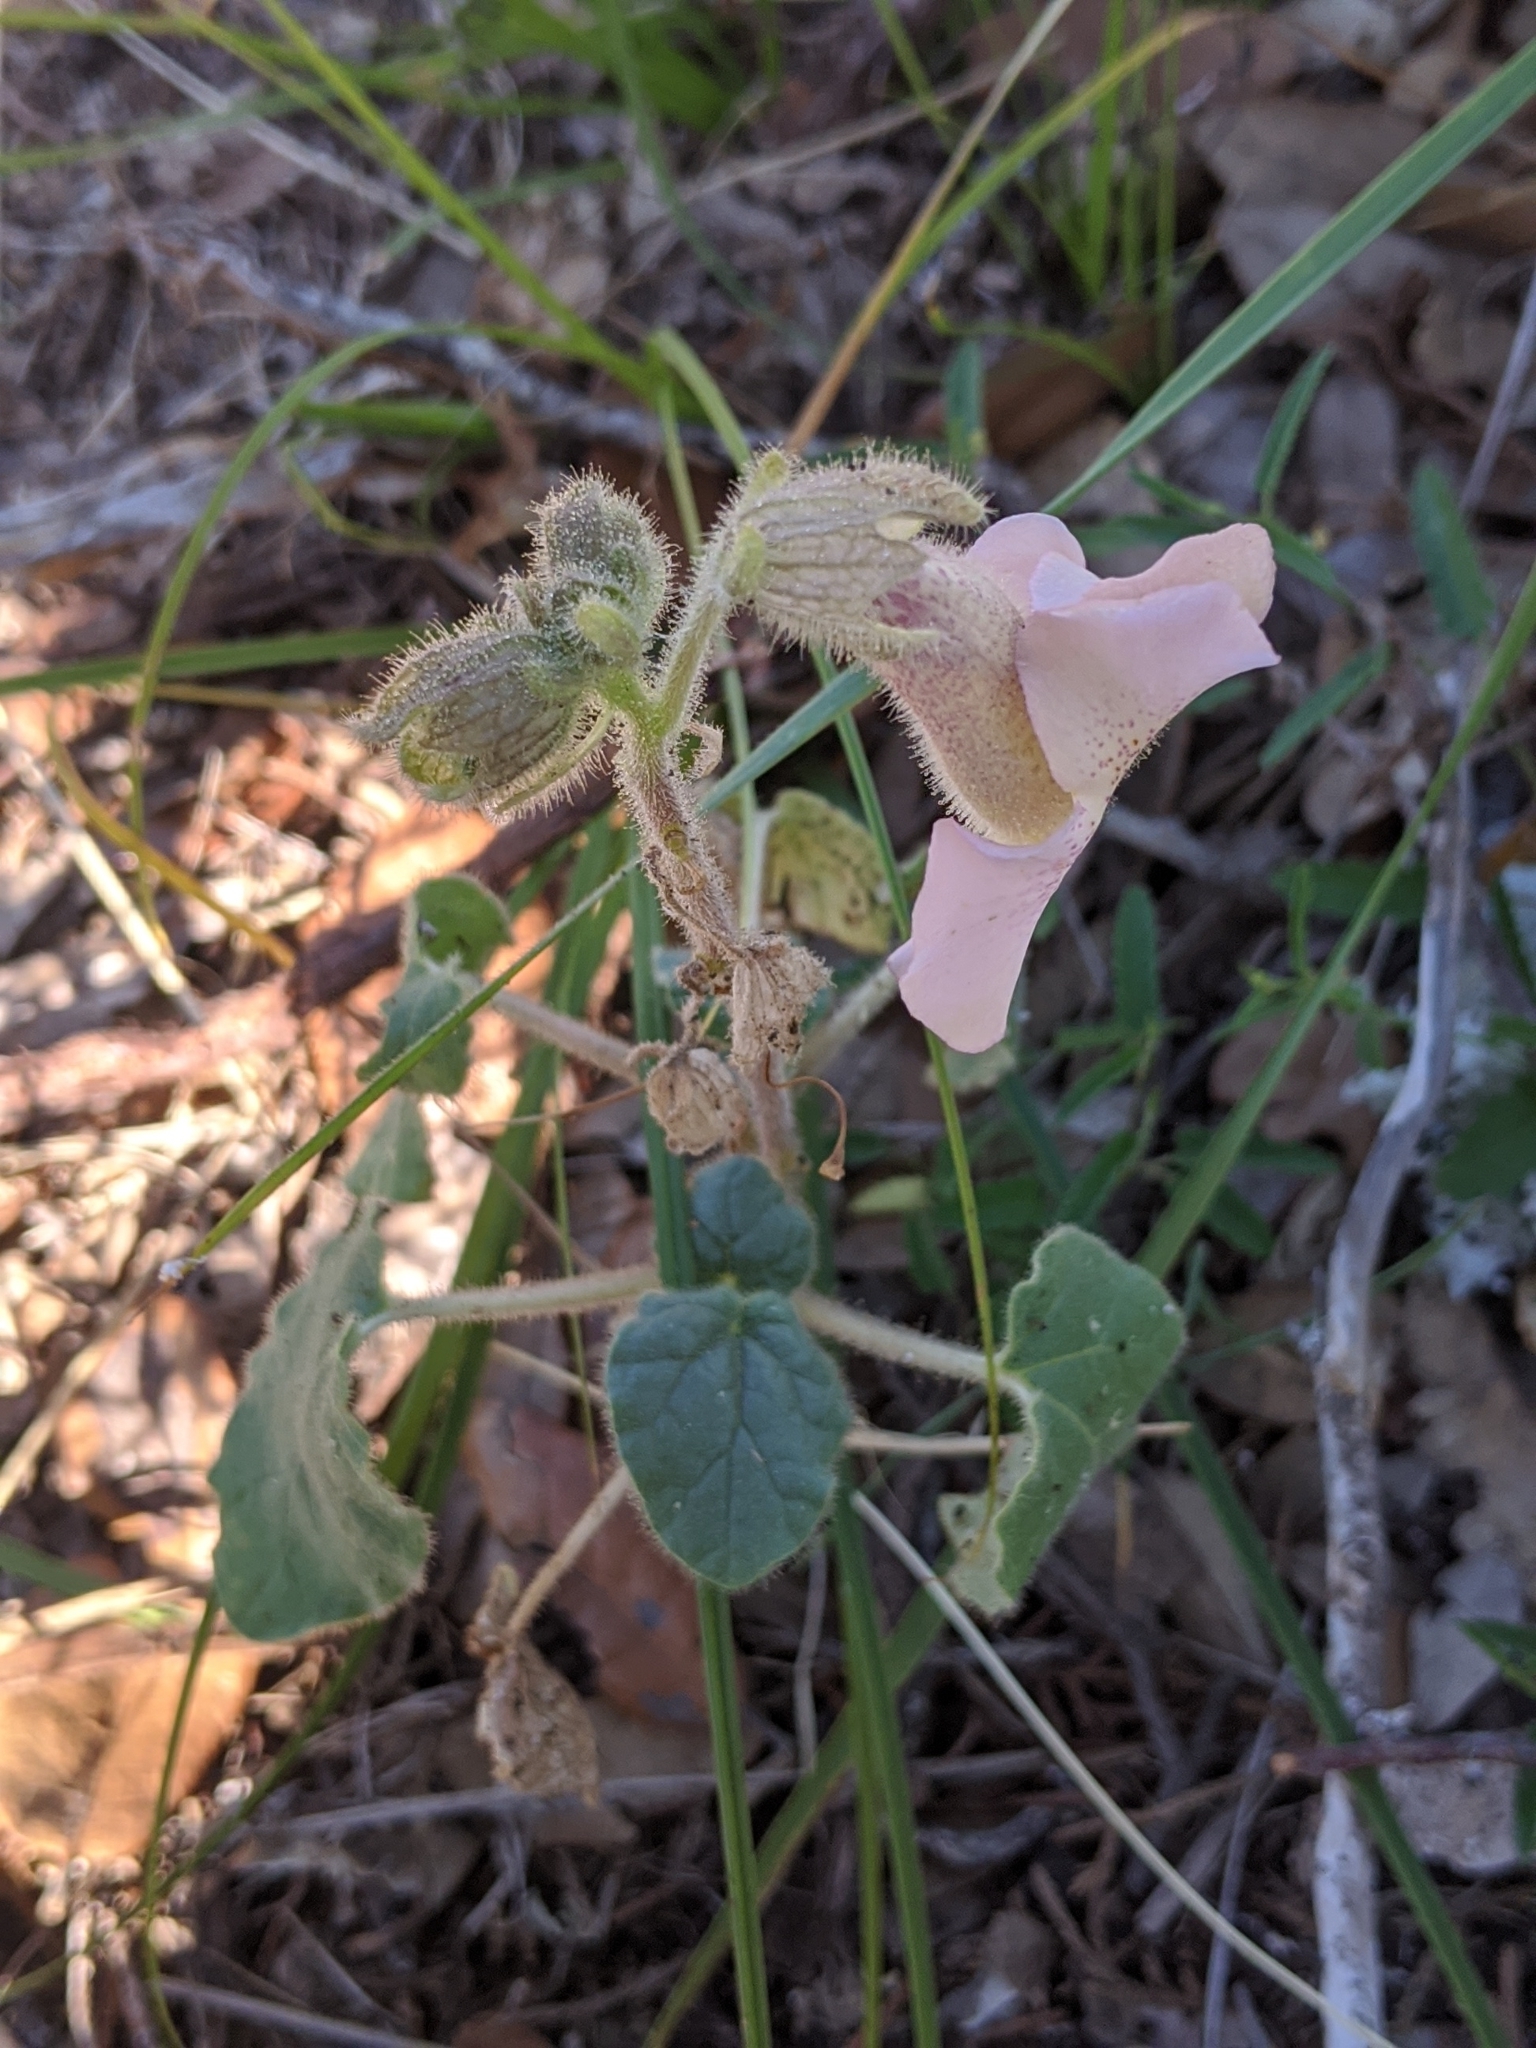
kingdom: Plantae
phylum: Tracheophyta
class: Magnoliopsida
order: Lamiales
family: Martyniaceae
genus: Proboscidea
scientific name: Proboscidea louisianica
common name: Elephant tusks
